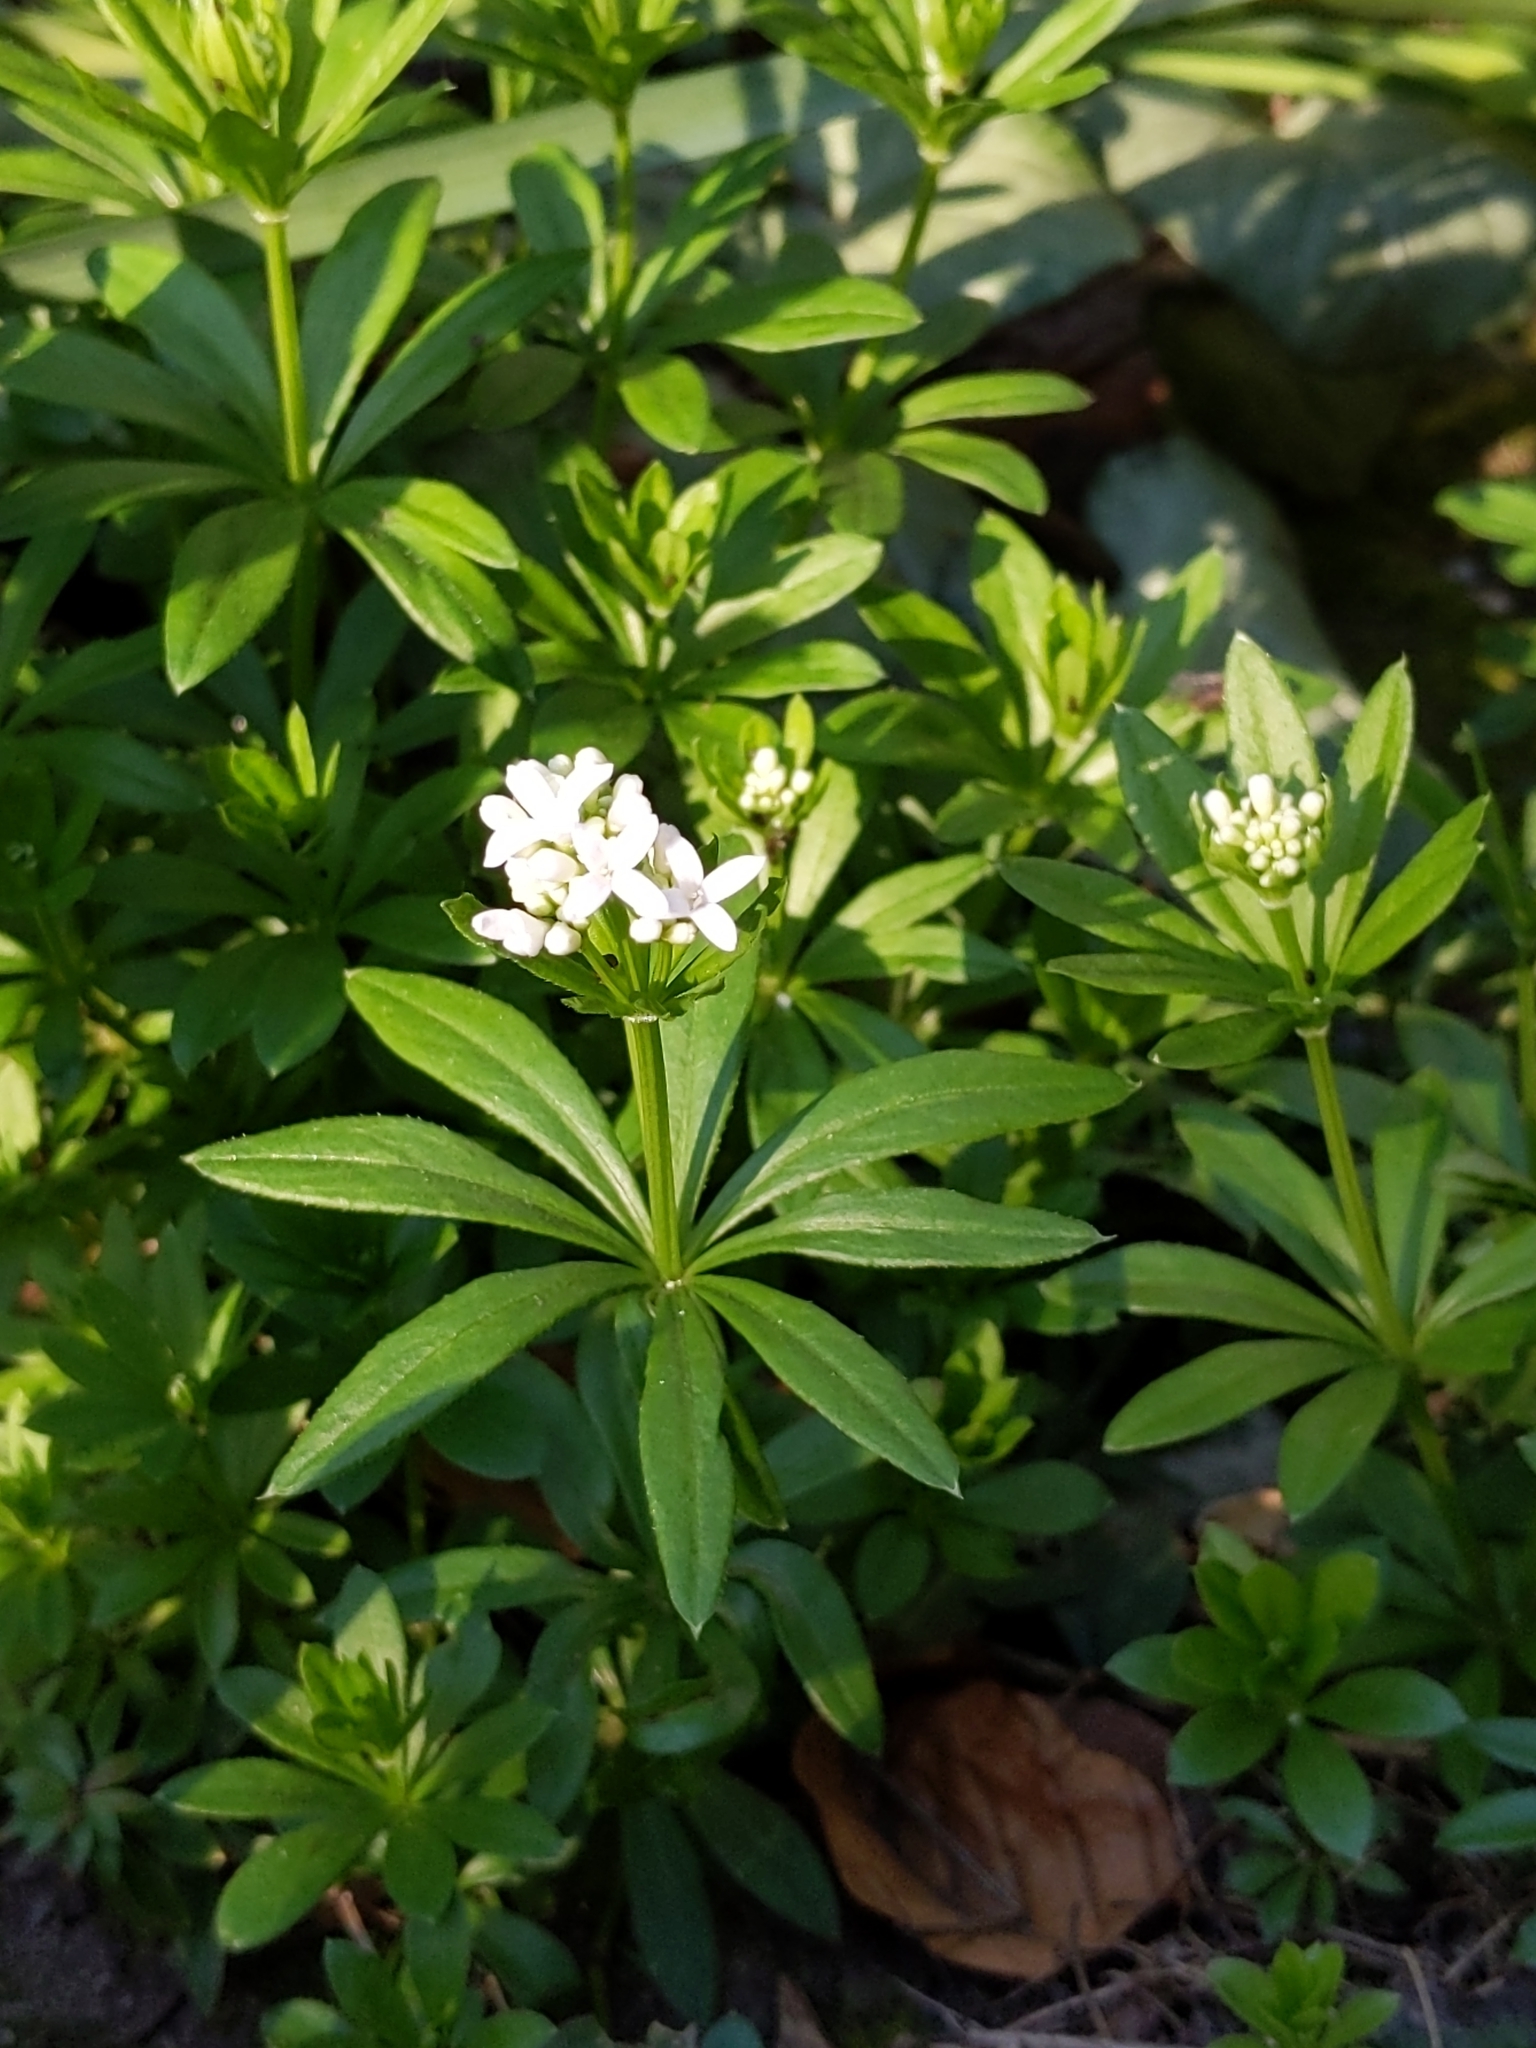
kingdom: Plantae
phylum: Tracheophyta
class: Magnoliopsida
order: Gentianales
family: Rubiaceae
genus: Galium
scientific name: Galium odoratum
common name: Sweet woodruff
